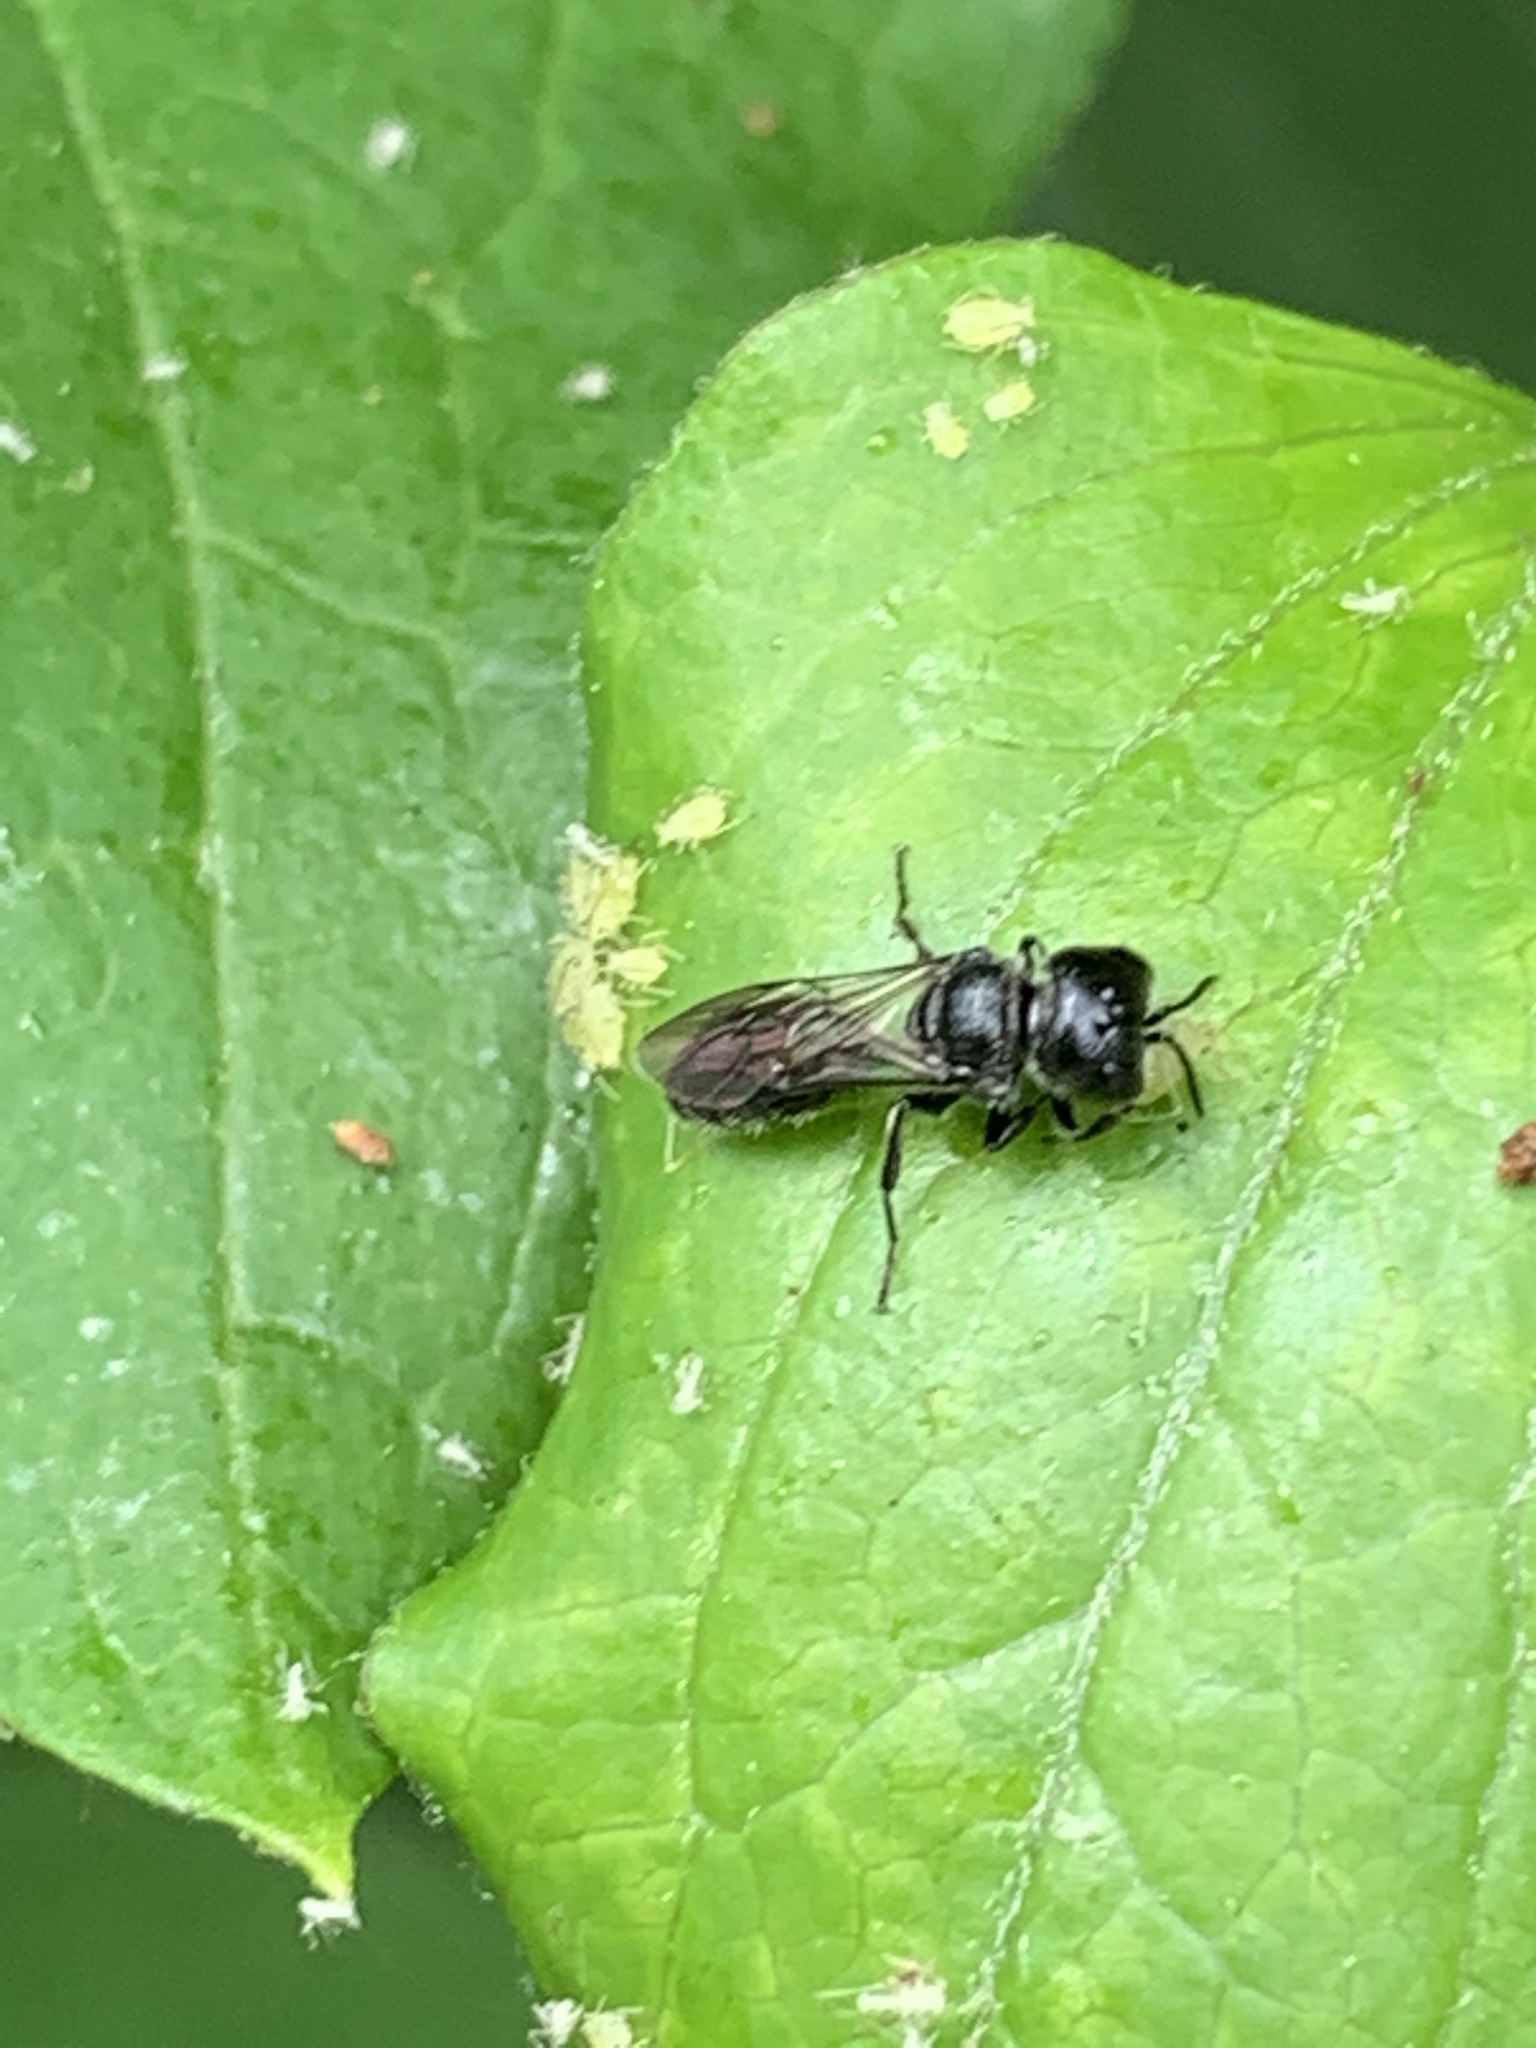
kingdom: Animalia
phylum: Arthropoda
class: Insecta
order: Hymenoptera
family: Crabronidae
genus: Pemphredon
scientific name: Pemphredon
